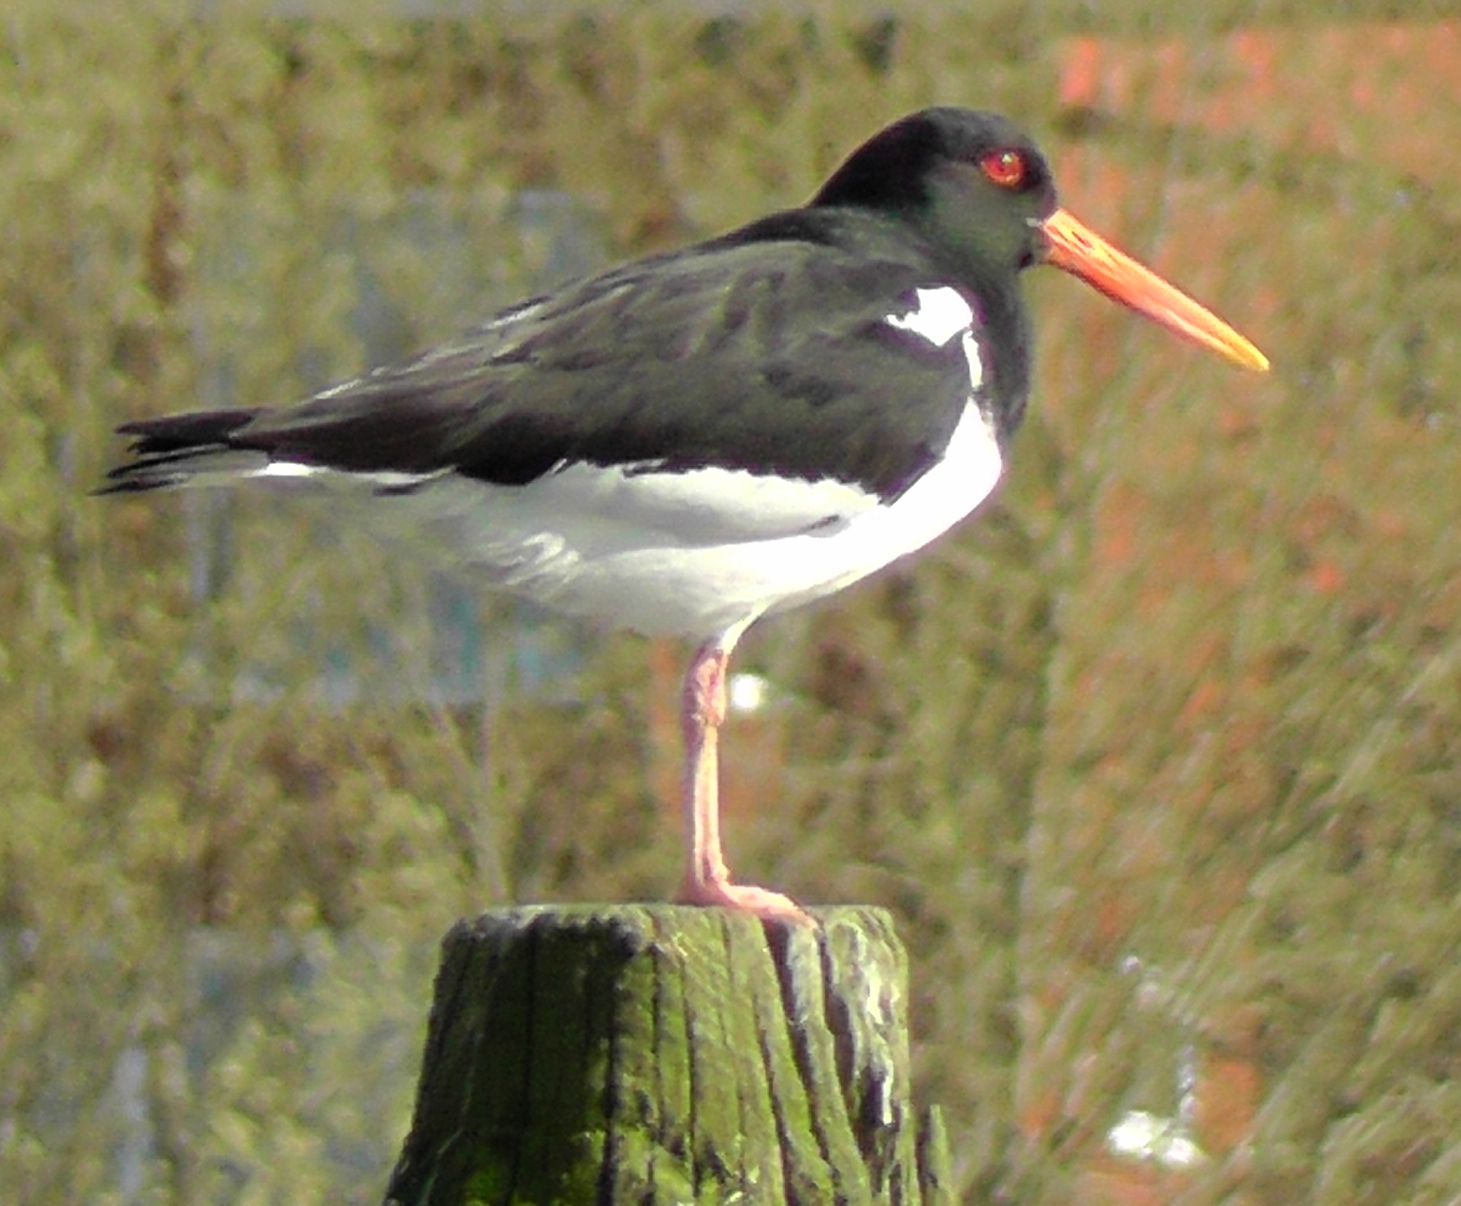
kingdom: Animalia
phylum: Chordata
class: Aves
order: Charadriiformes
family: Haematopodidae
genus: Haematopus
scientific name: Haematopus ostralegus
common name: Eurasian oystercatcher
